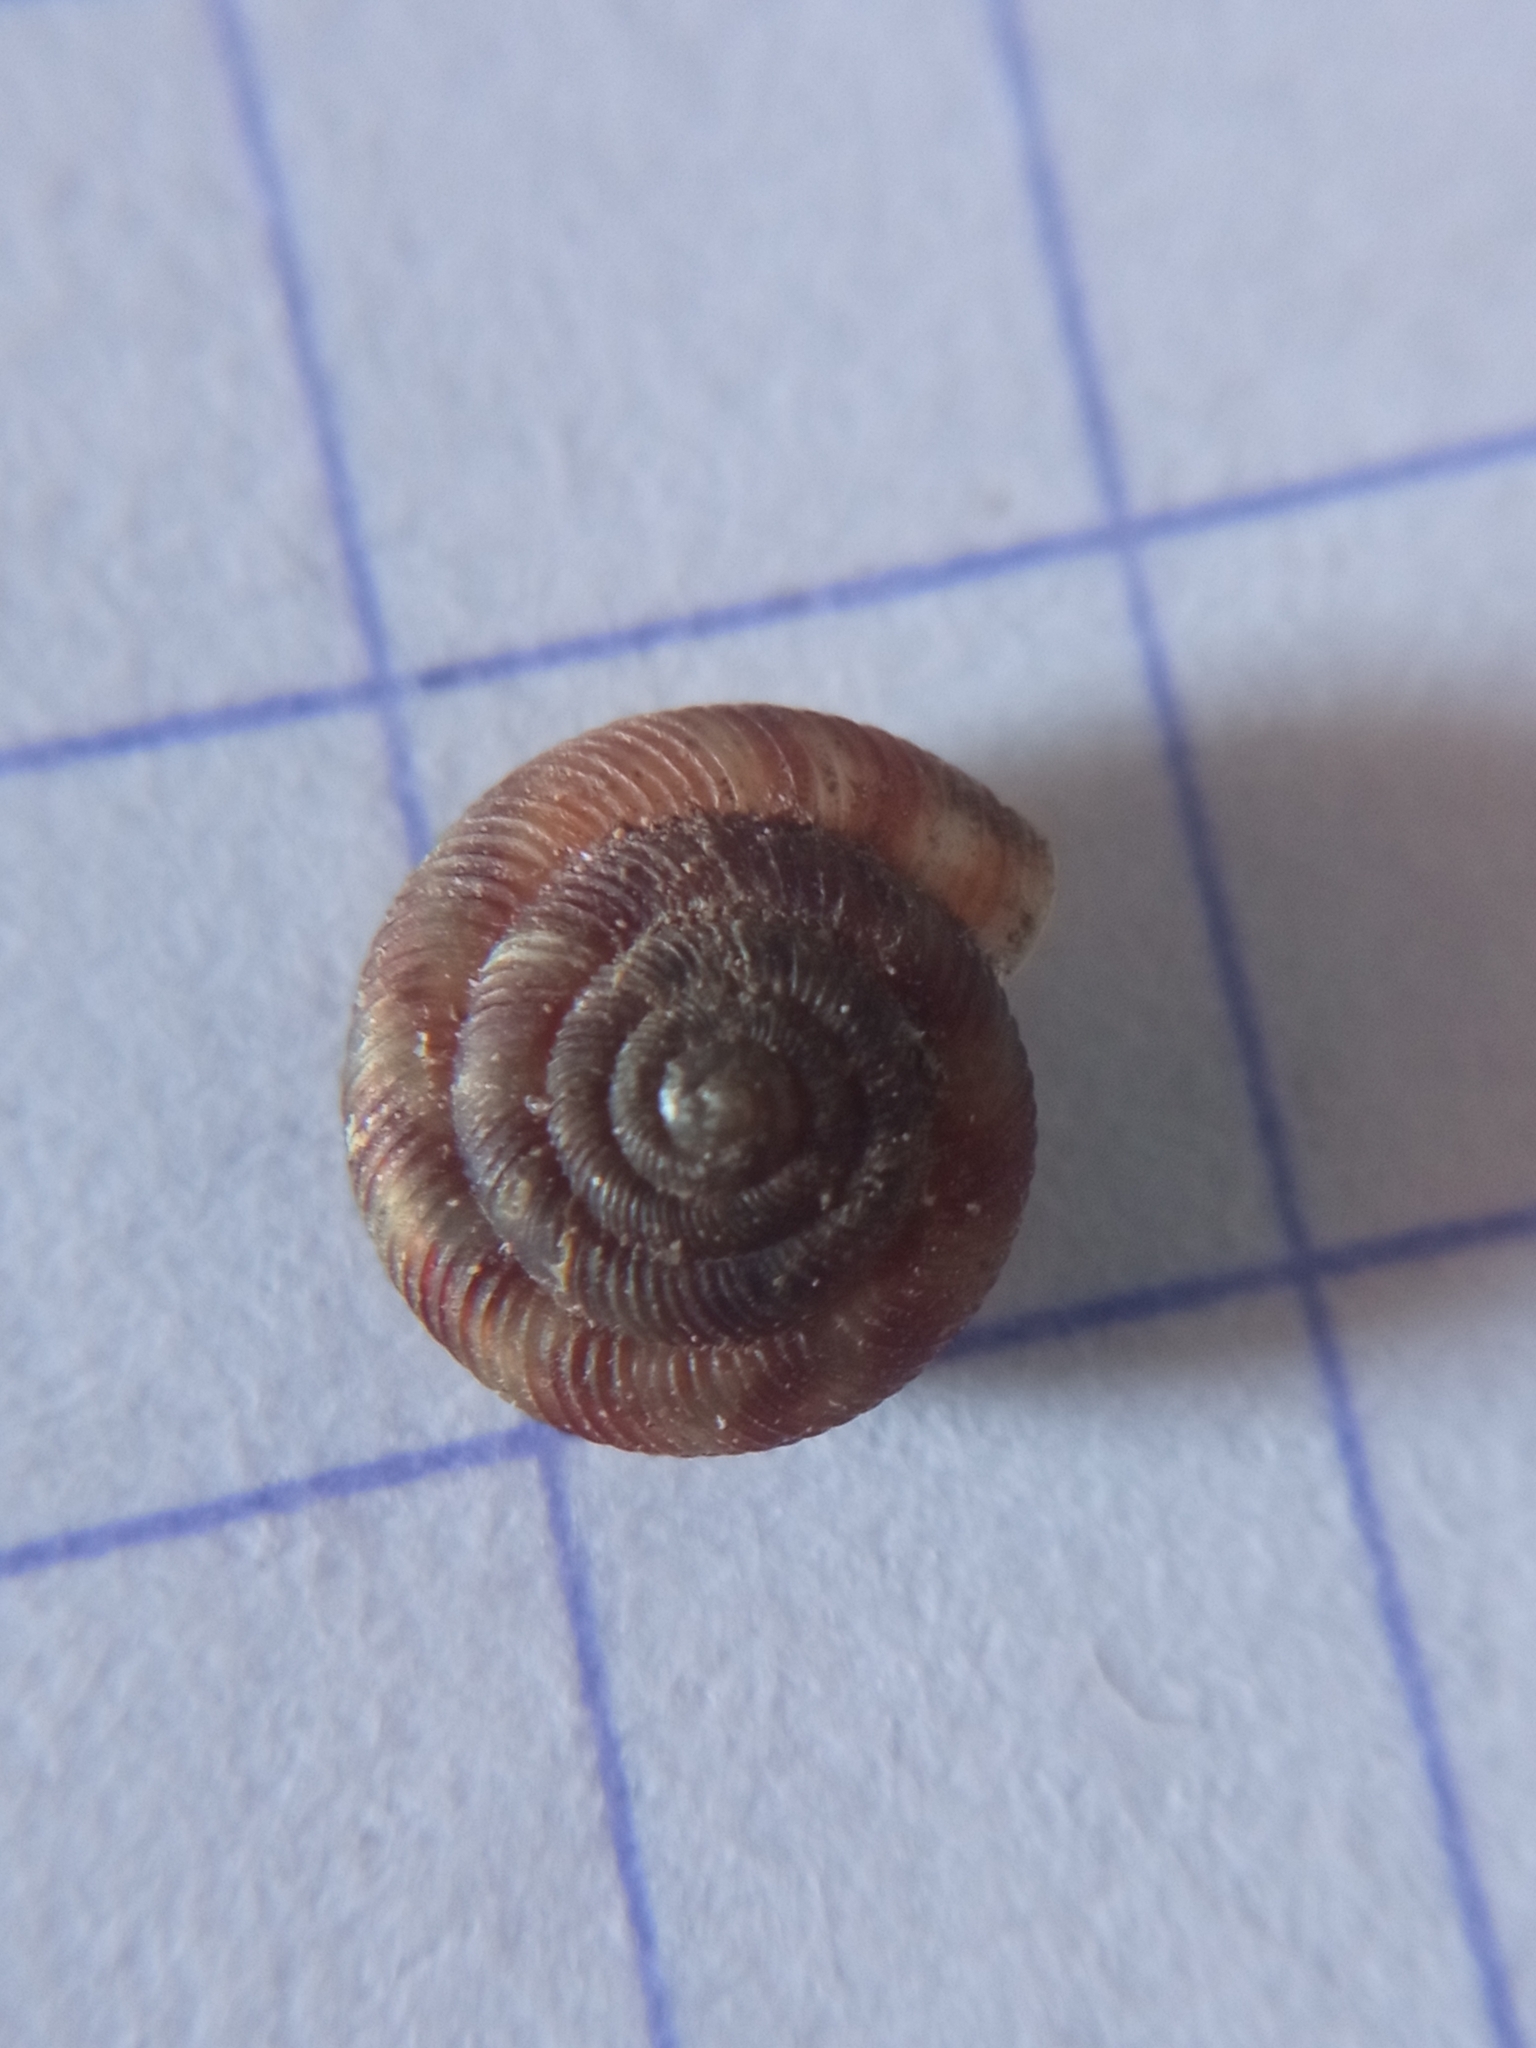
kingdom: Animalia
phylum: Mollusca
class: Gastropoda
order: Stylommatophora
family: Discidae
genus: Discus
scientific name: Discus rotundatus
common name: Rounded snail
